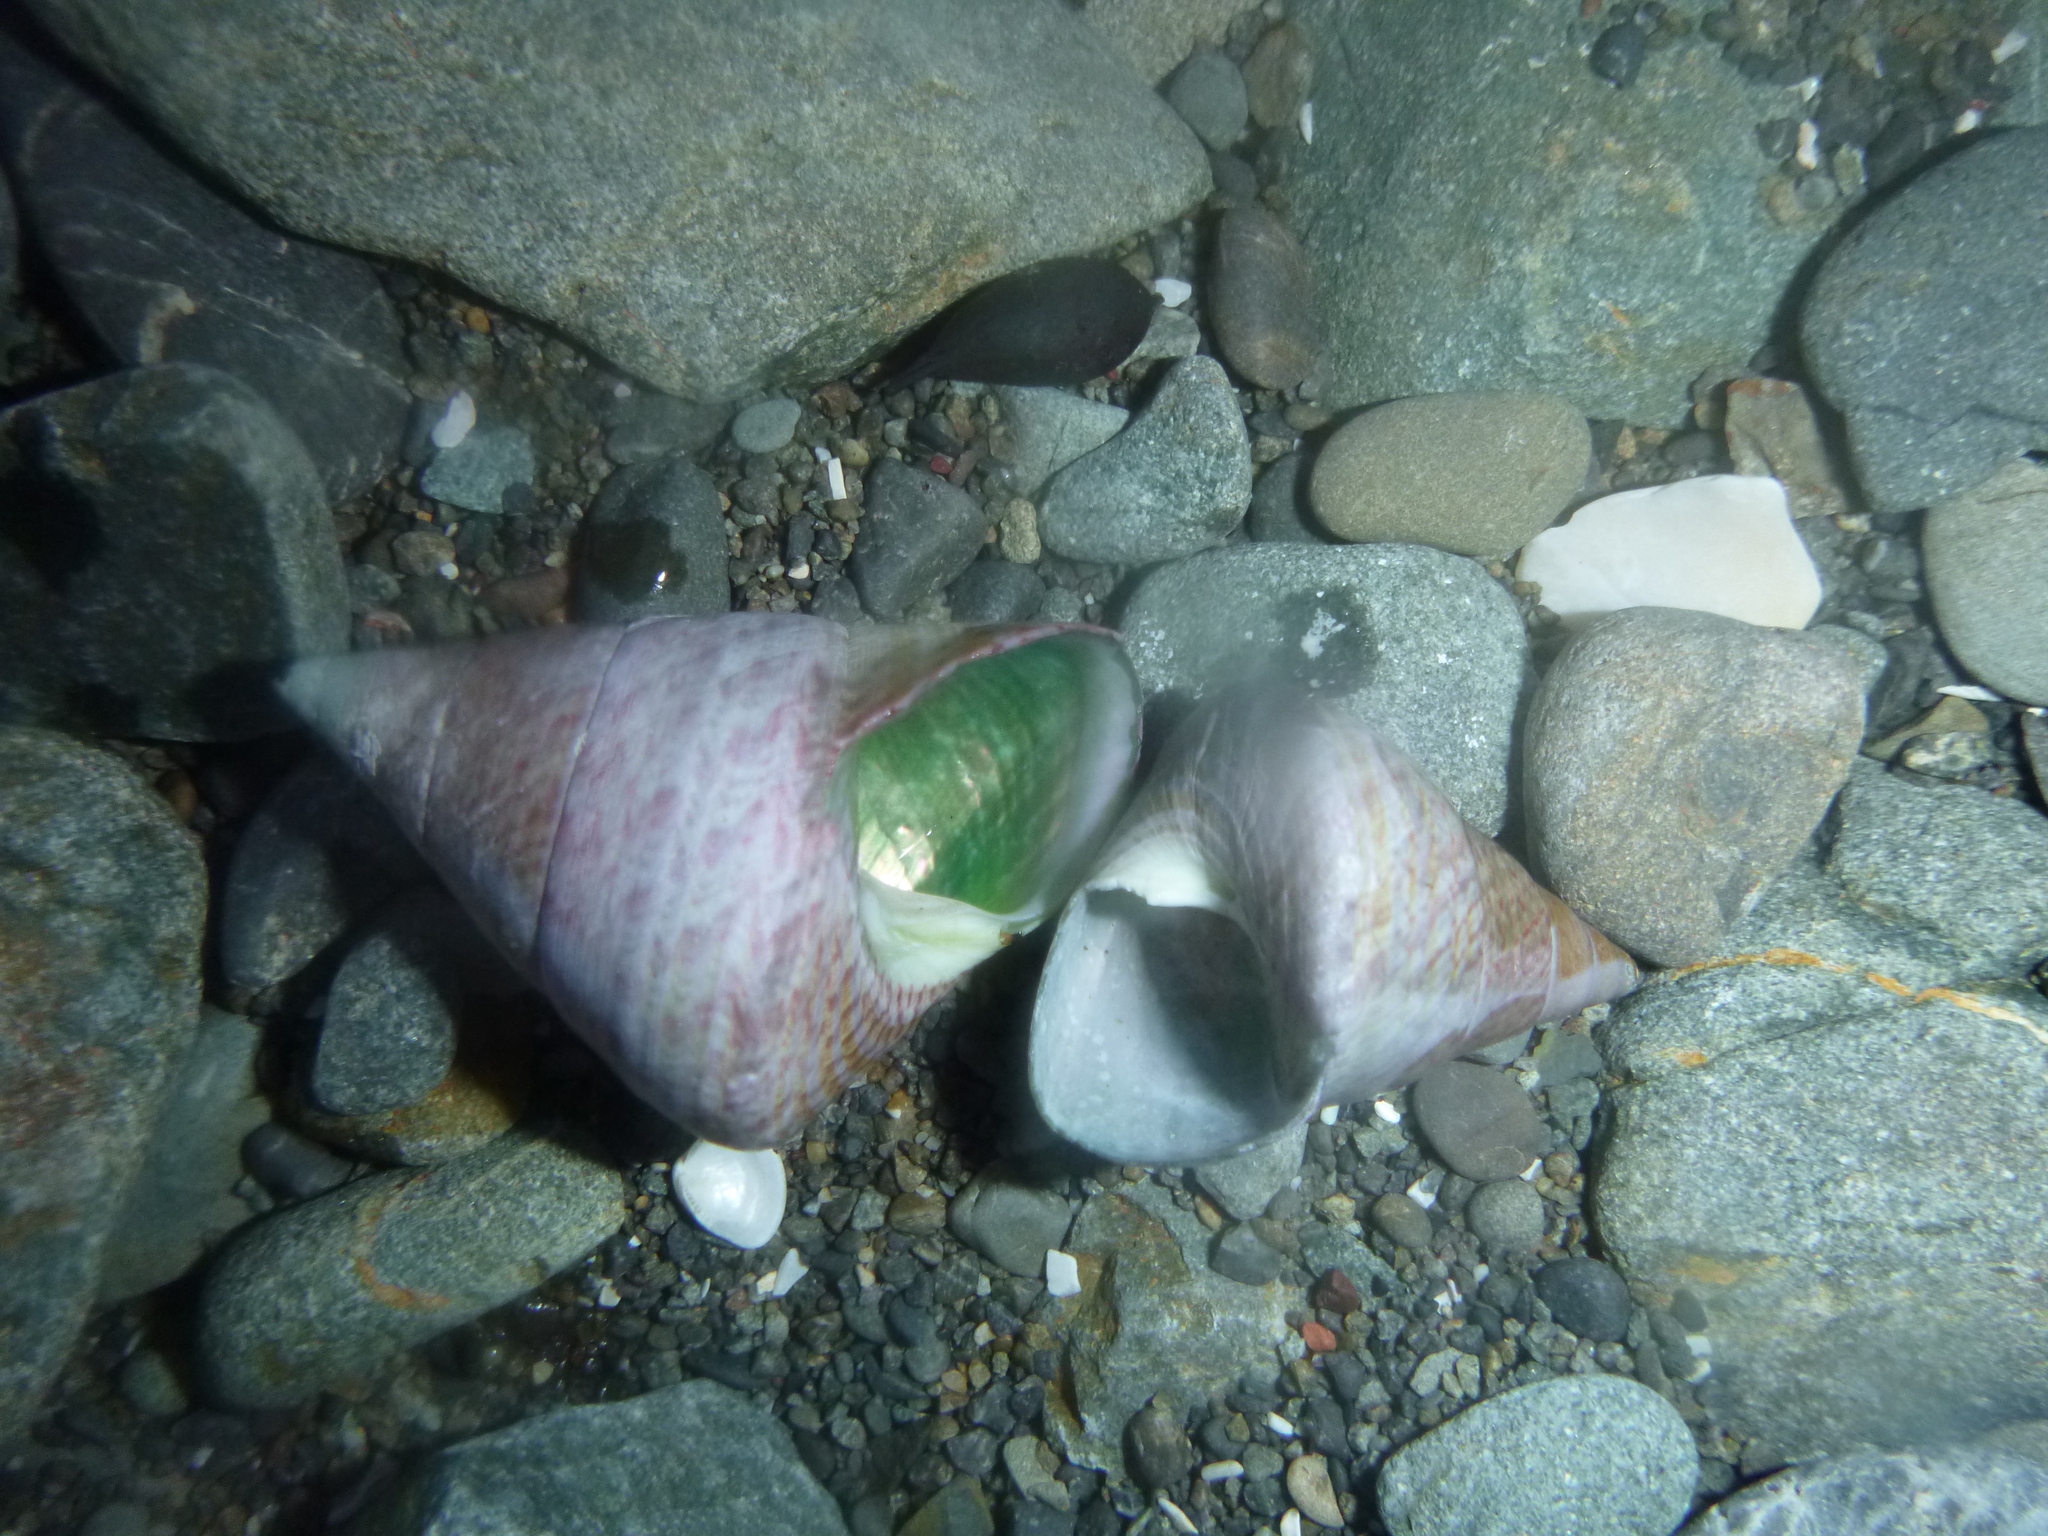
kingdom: Animalia
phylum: Mollusca
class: Gastropoda
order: Trochida
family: Trochidae
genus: Cantharidus
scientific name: Cantharidus opalus
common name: Opal jewel topsnail
